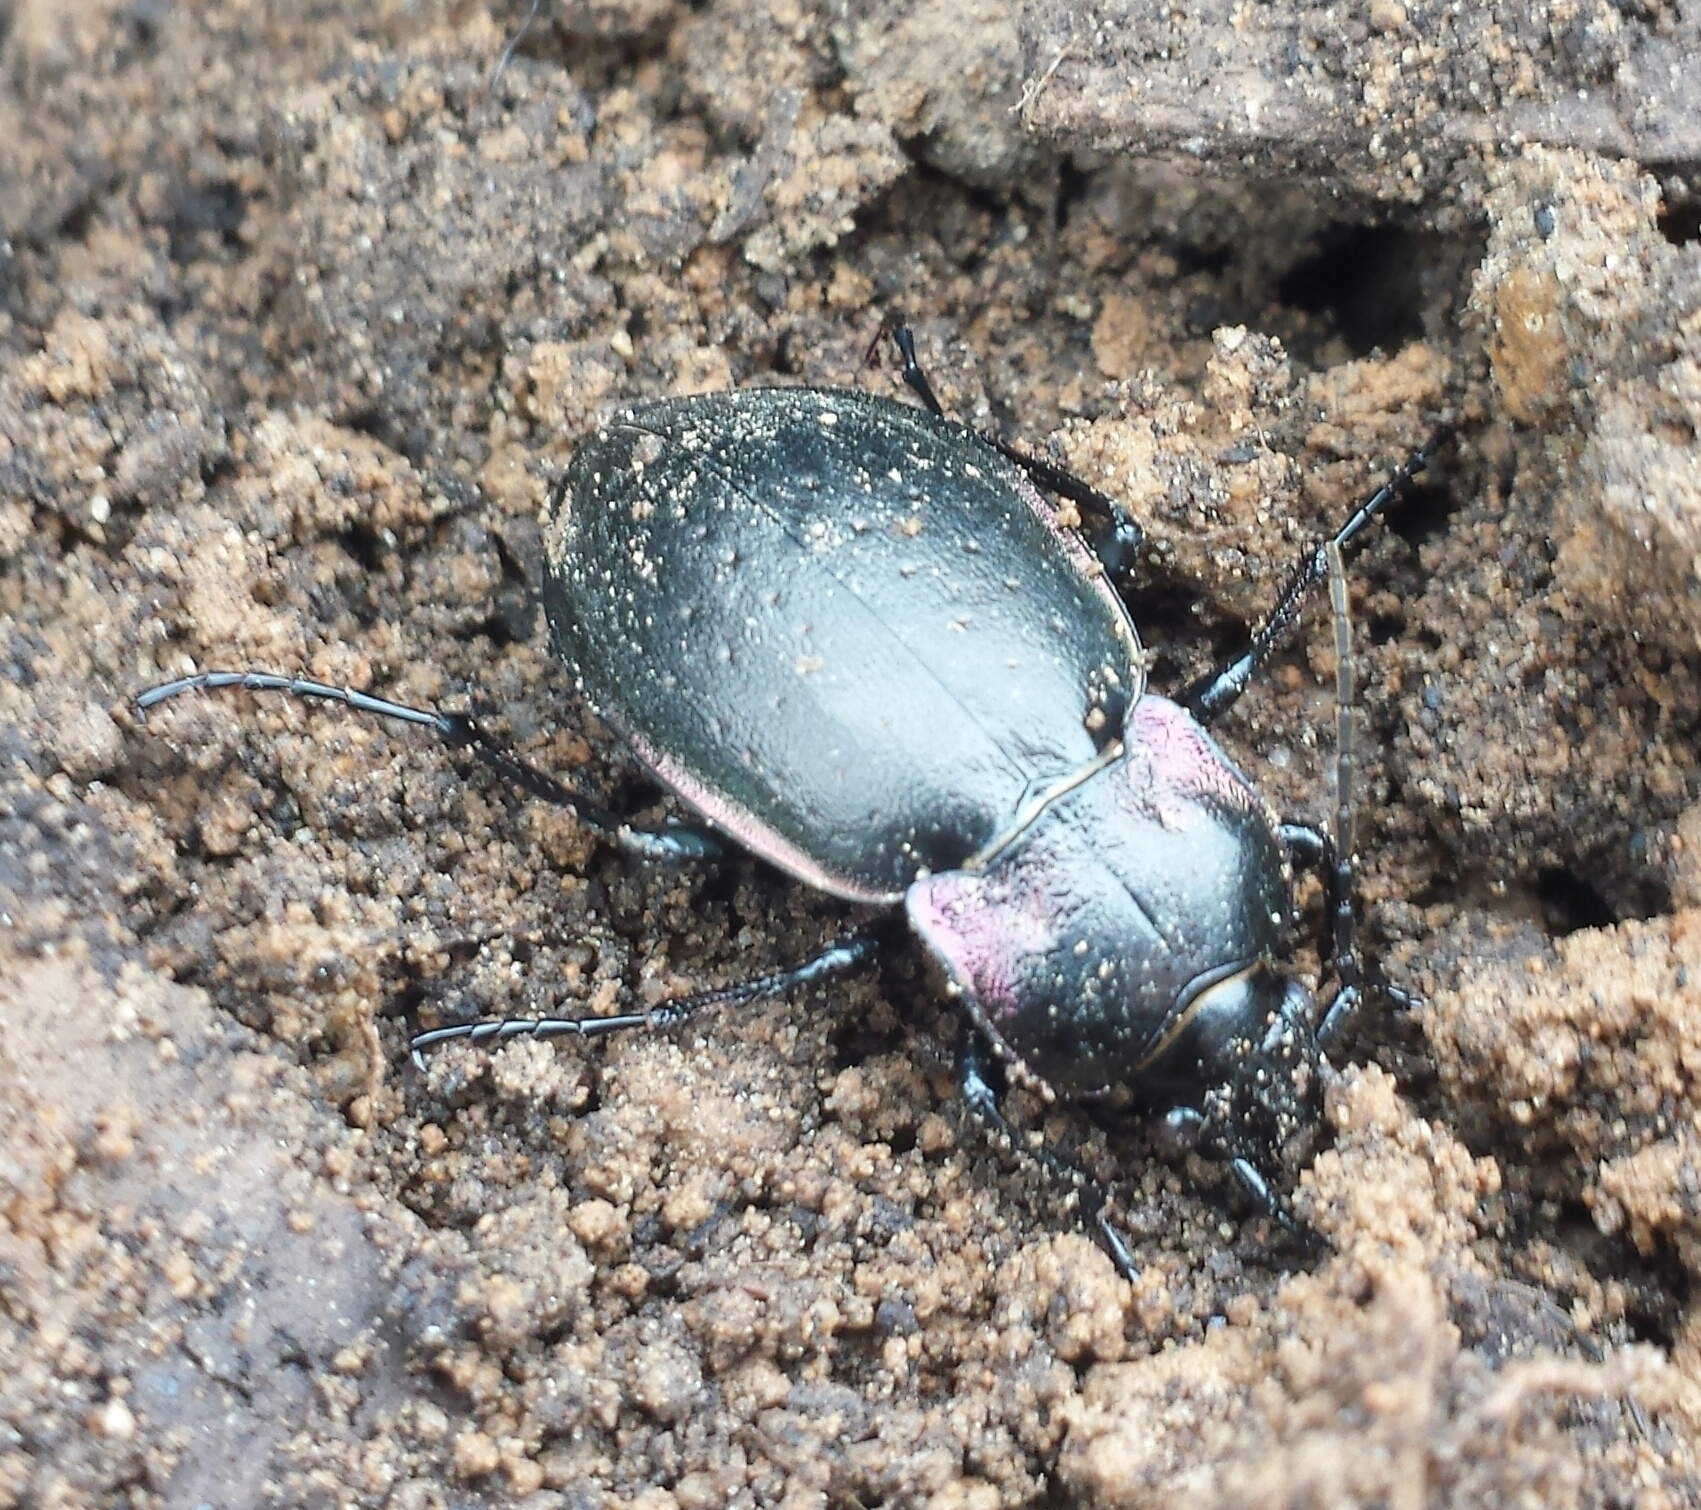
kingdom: Animalia
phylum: Arthropoda
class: Insecta
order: Coleoptera
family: Carabidae
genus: Carabus
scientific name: Carabus nemoralis
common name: European ground beetle
